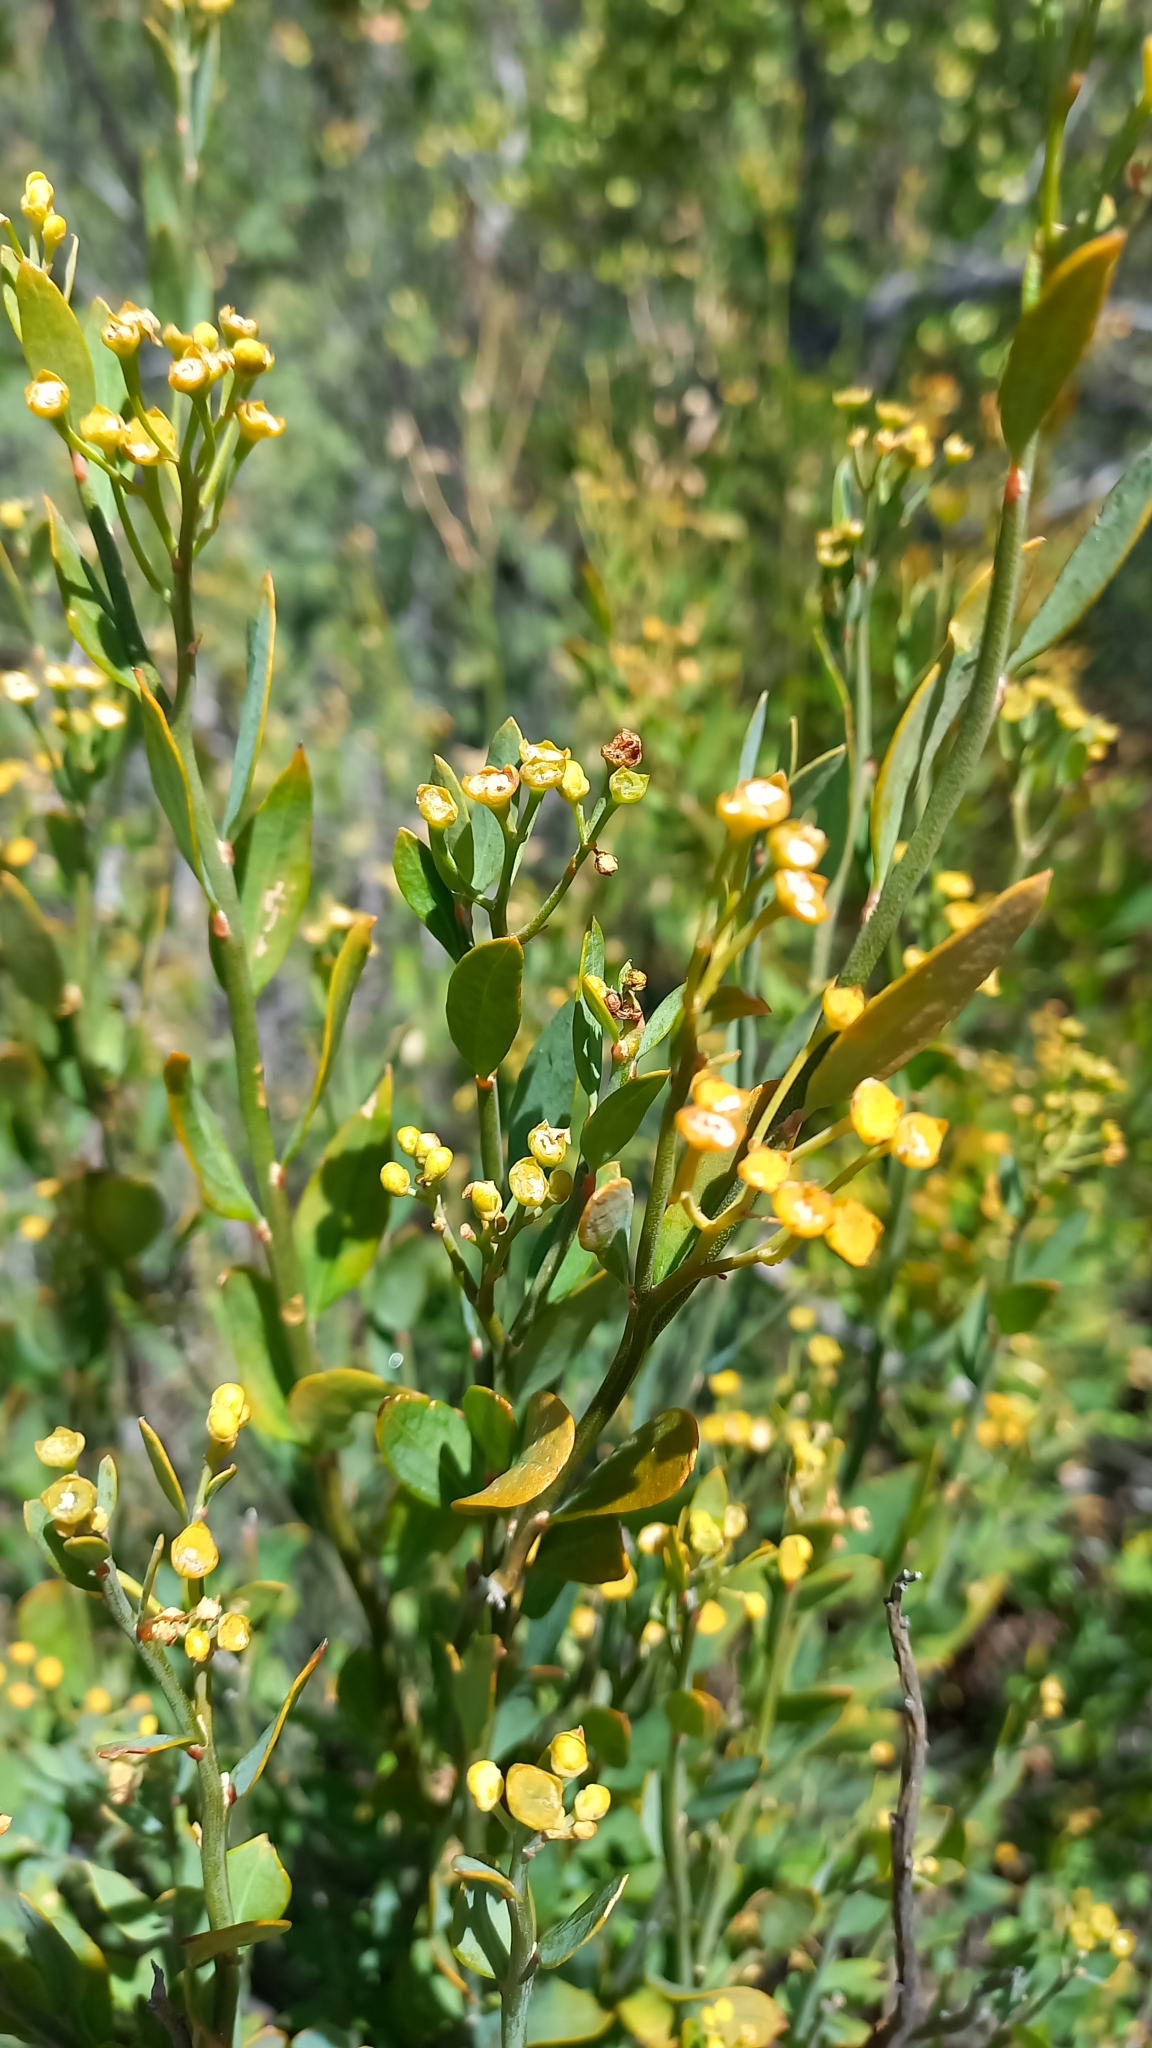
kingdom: Plantae
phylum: Tracheophyta
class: Magnoliopsida
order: Solanales
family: Montiniaceae
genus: Montinia
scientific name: Montinia caryophyllacea
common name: Wild clove-bush
